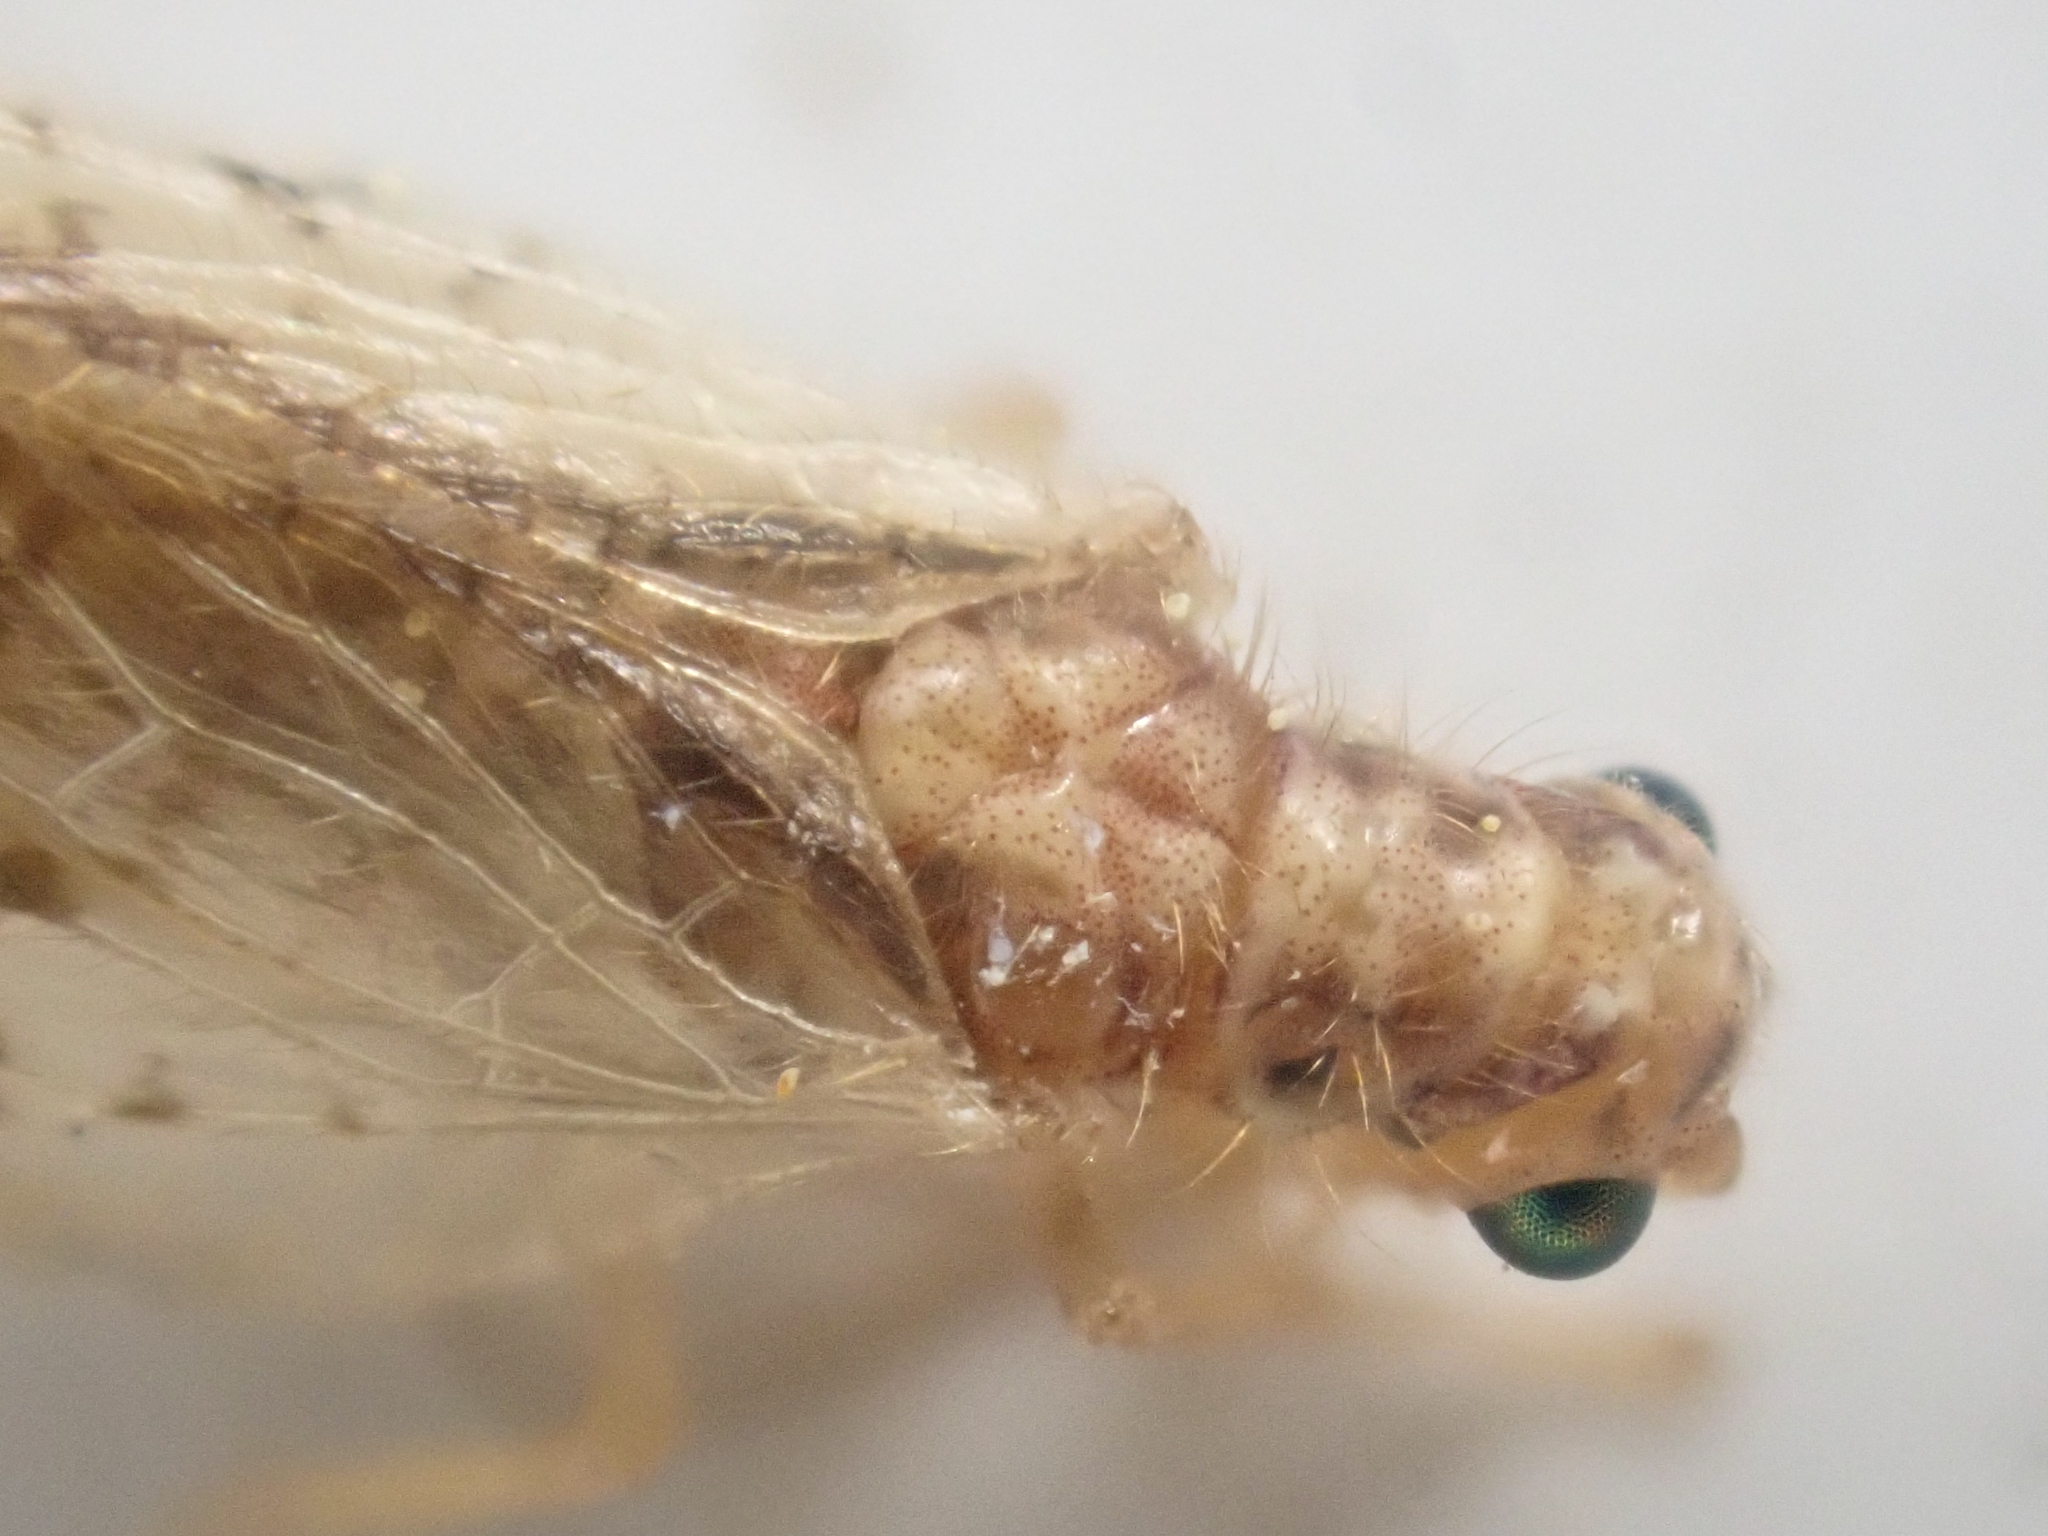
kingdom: Animalia
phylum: Arthropoda
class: Insecta
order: Neuroptera
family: Hemerobiidae
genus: Micromus
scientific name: Micromus borealis
